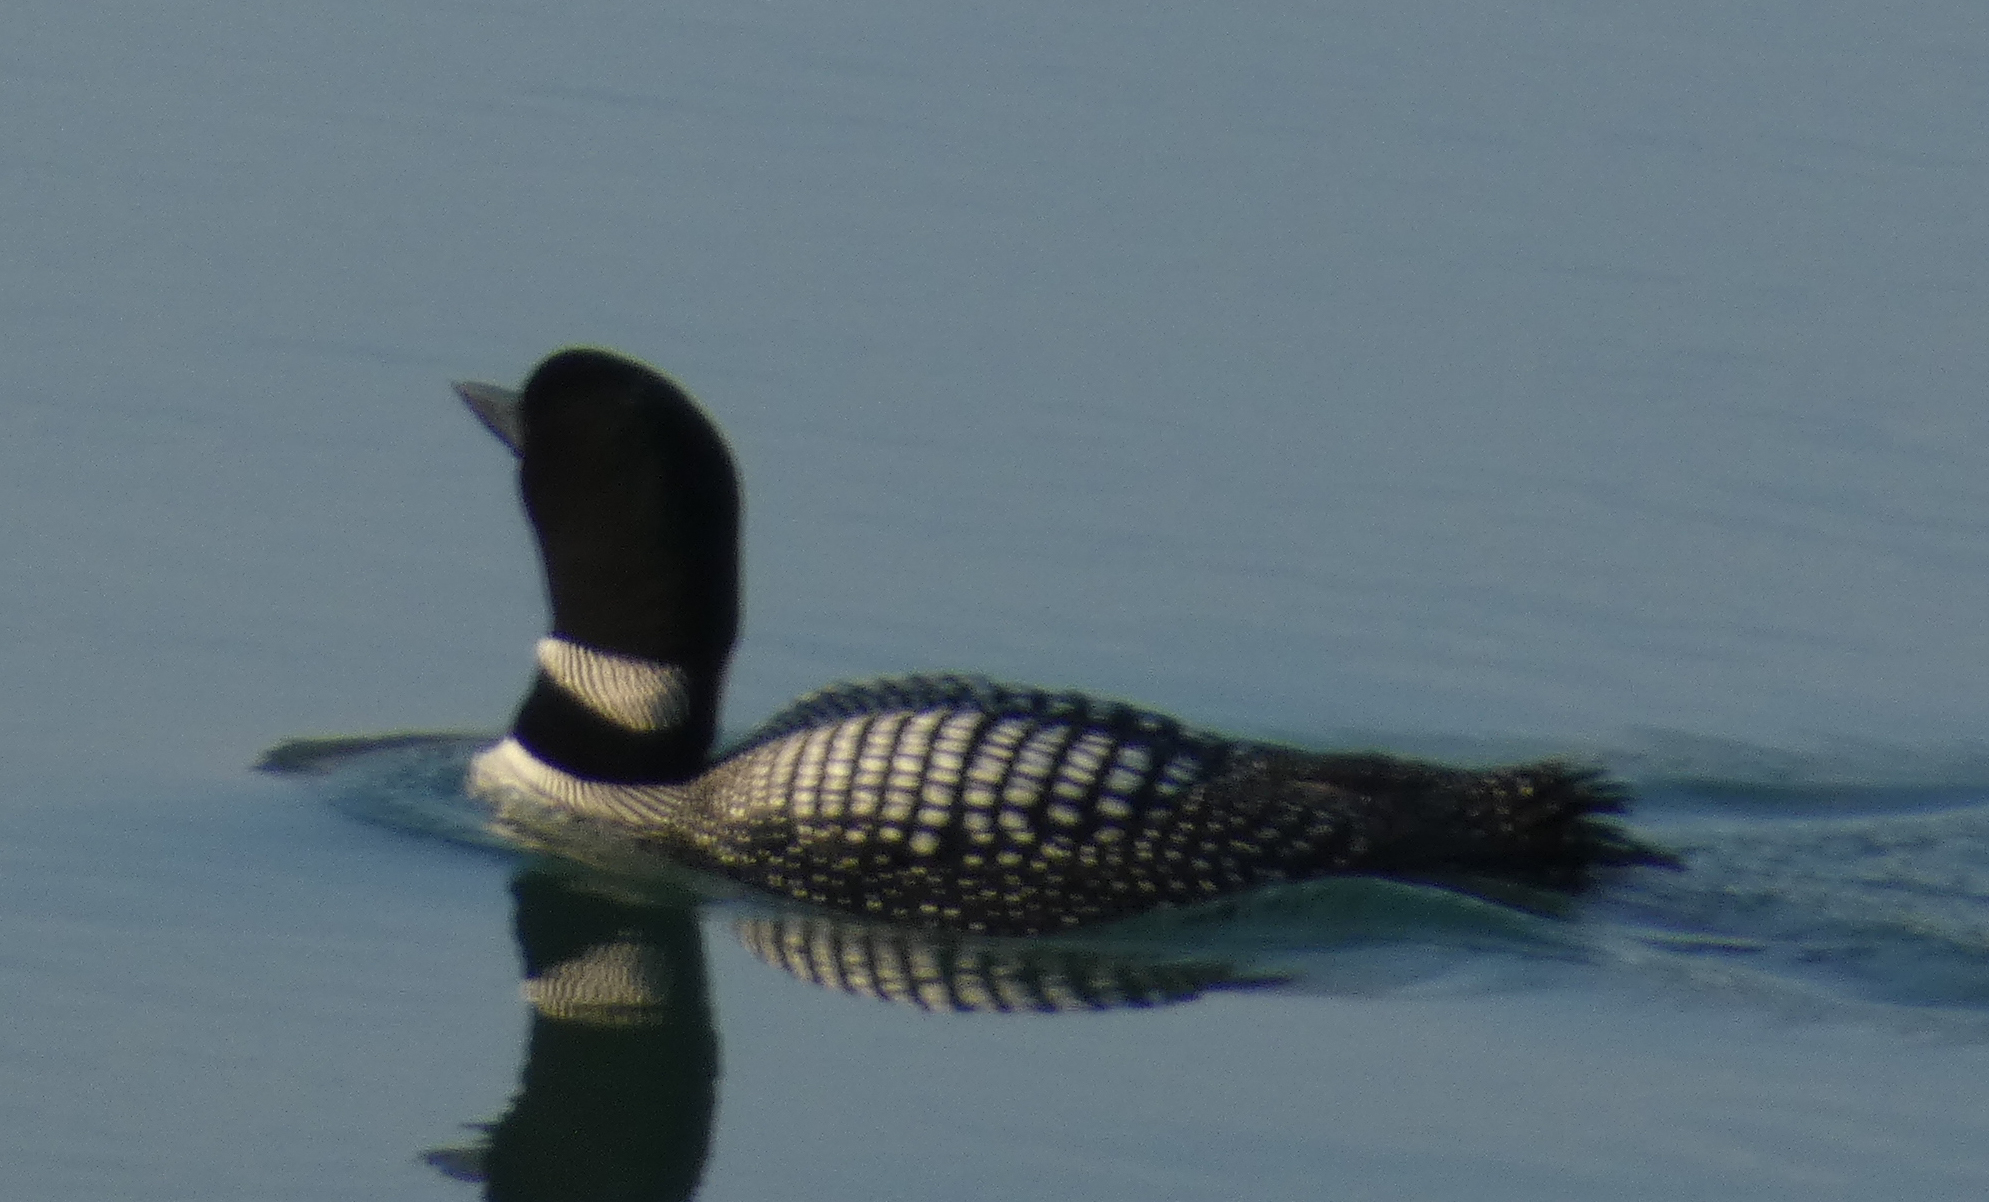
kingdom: Animalia
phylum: Chordata
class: Aves
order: Gaviiformes
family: Gaviidae
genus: Gavia
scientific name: Gavia immer
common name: Common loon
